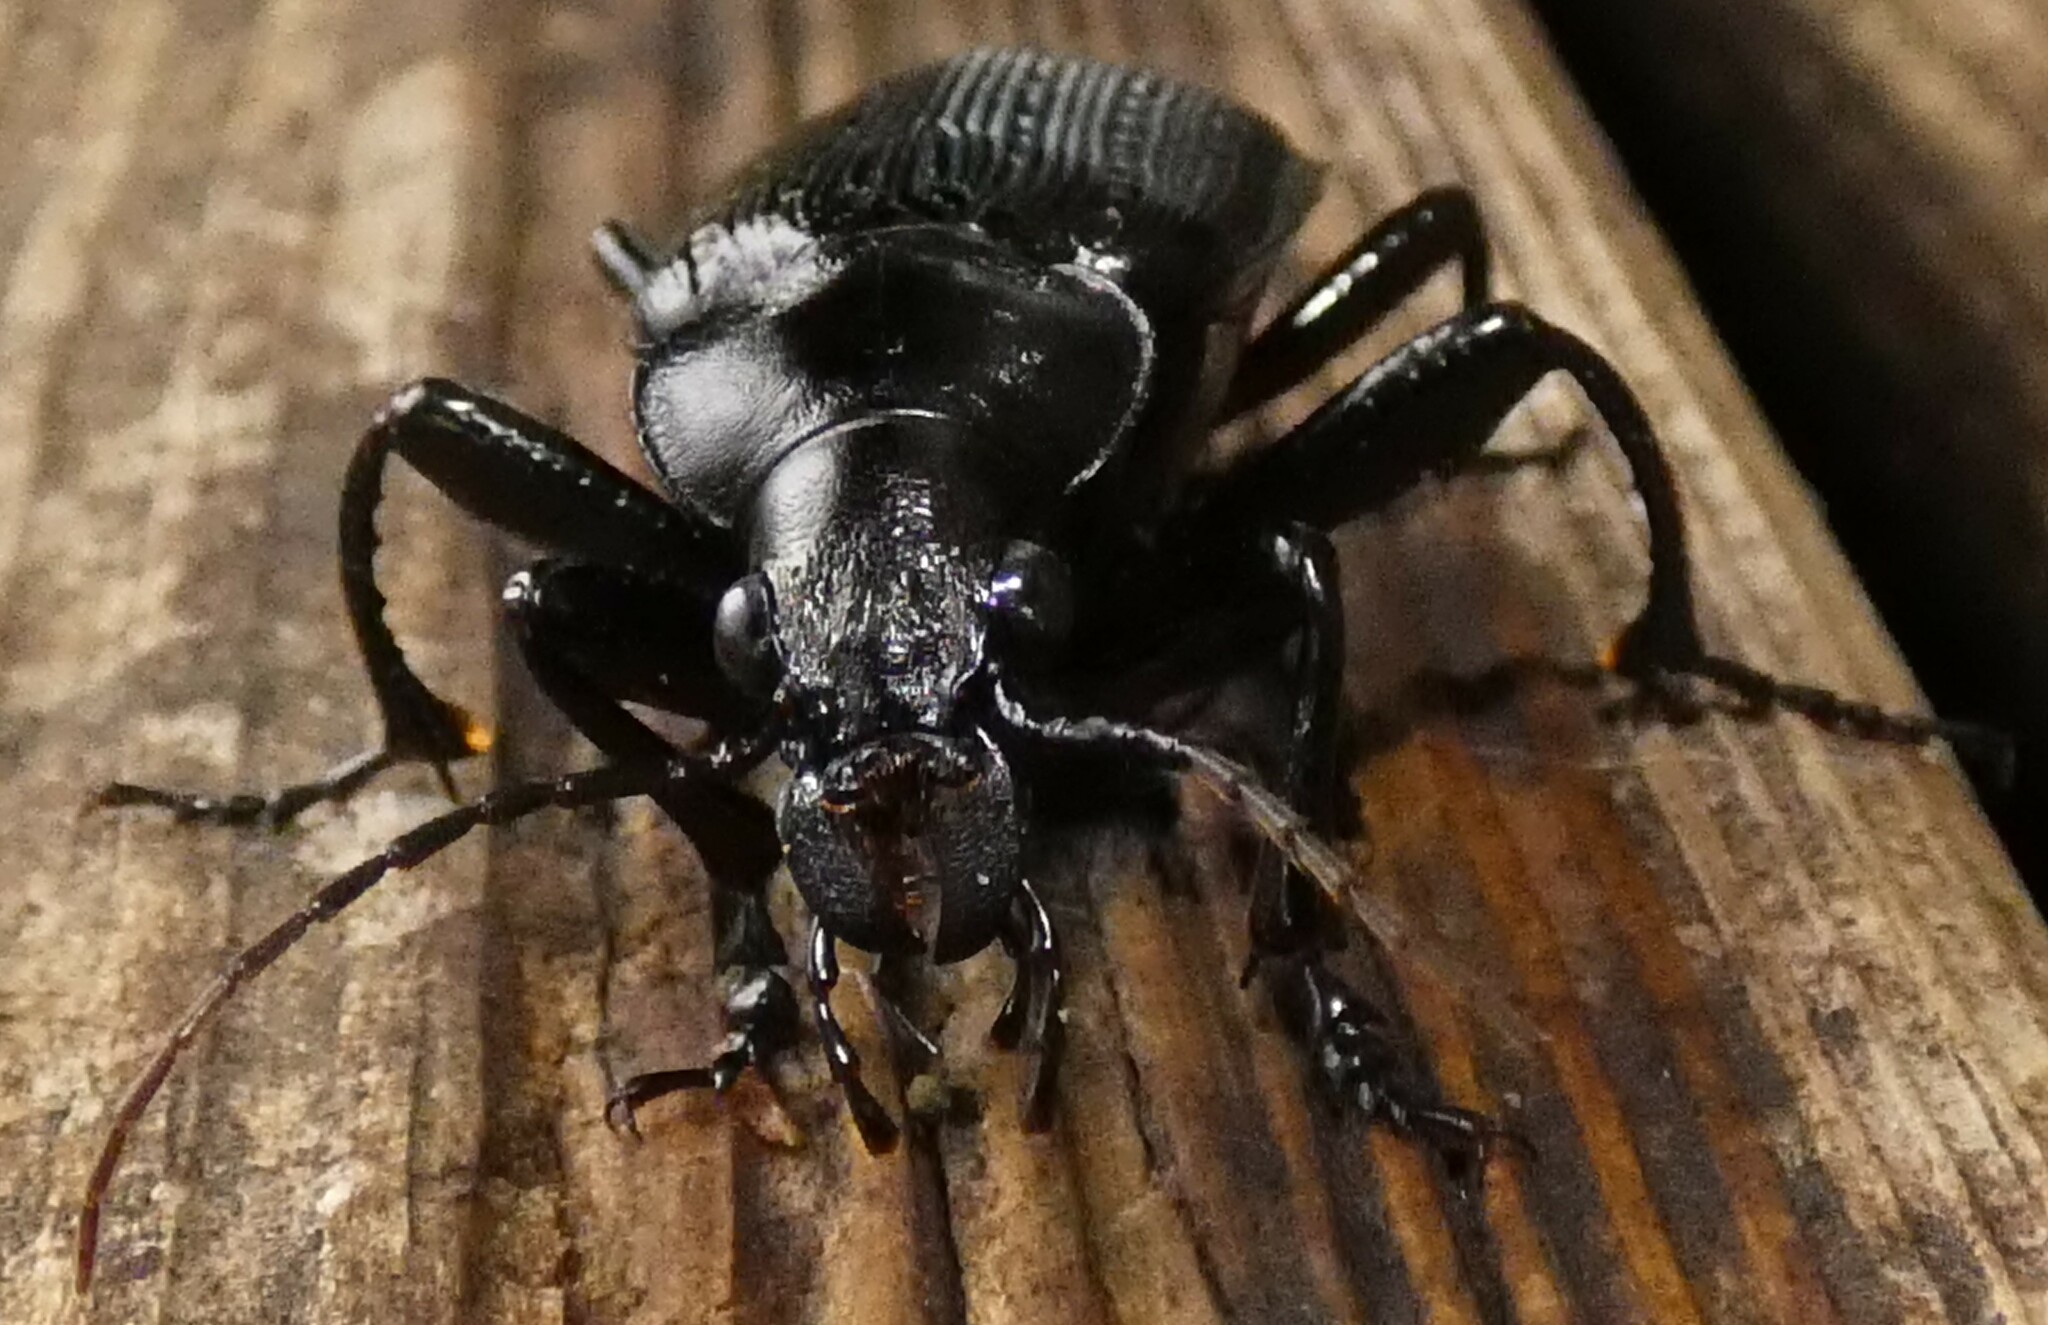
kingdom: Animalia
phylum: Arthropoda
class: Insecta
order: Coleoptera
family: Carabidae
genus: Calosoma
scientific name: Calosoma sayi
